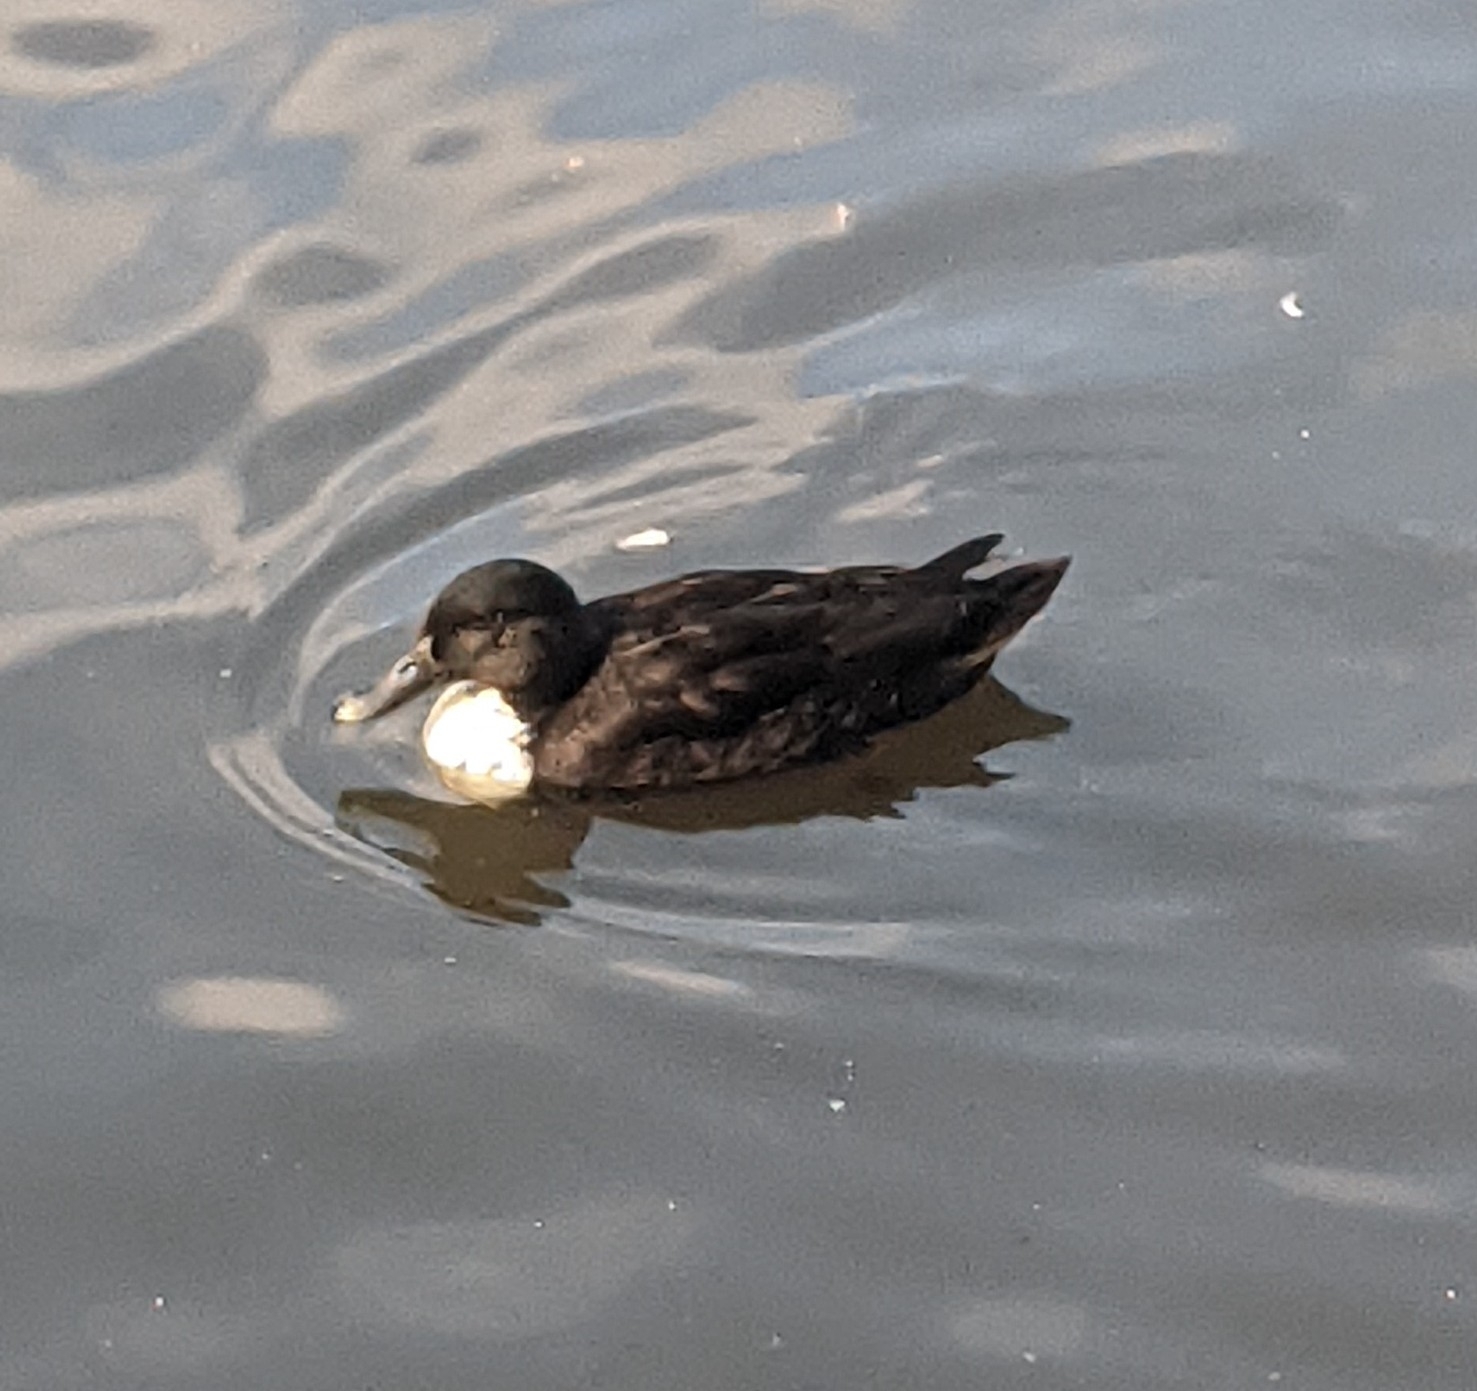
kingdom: Animalia
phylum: Chordata
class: Aves
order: Anseriformes
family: Anatidae
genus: Anas
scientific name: Anas platyrhynchos
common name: Mallard
